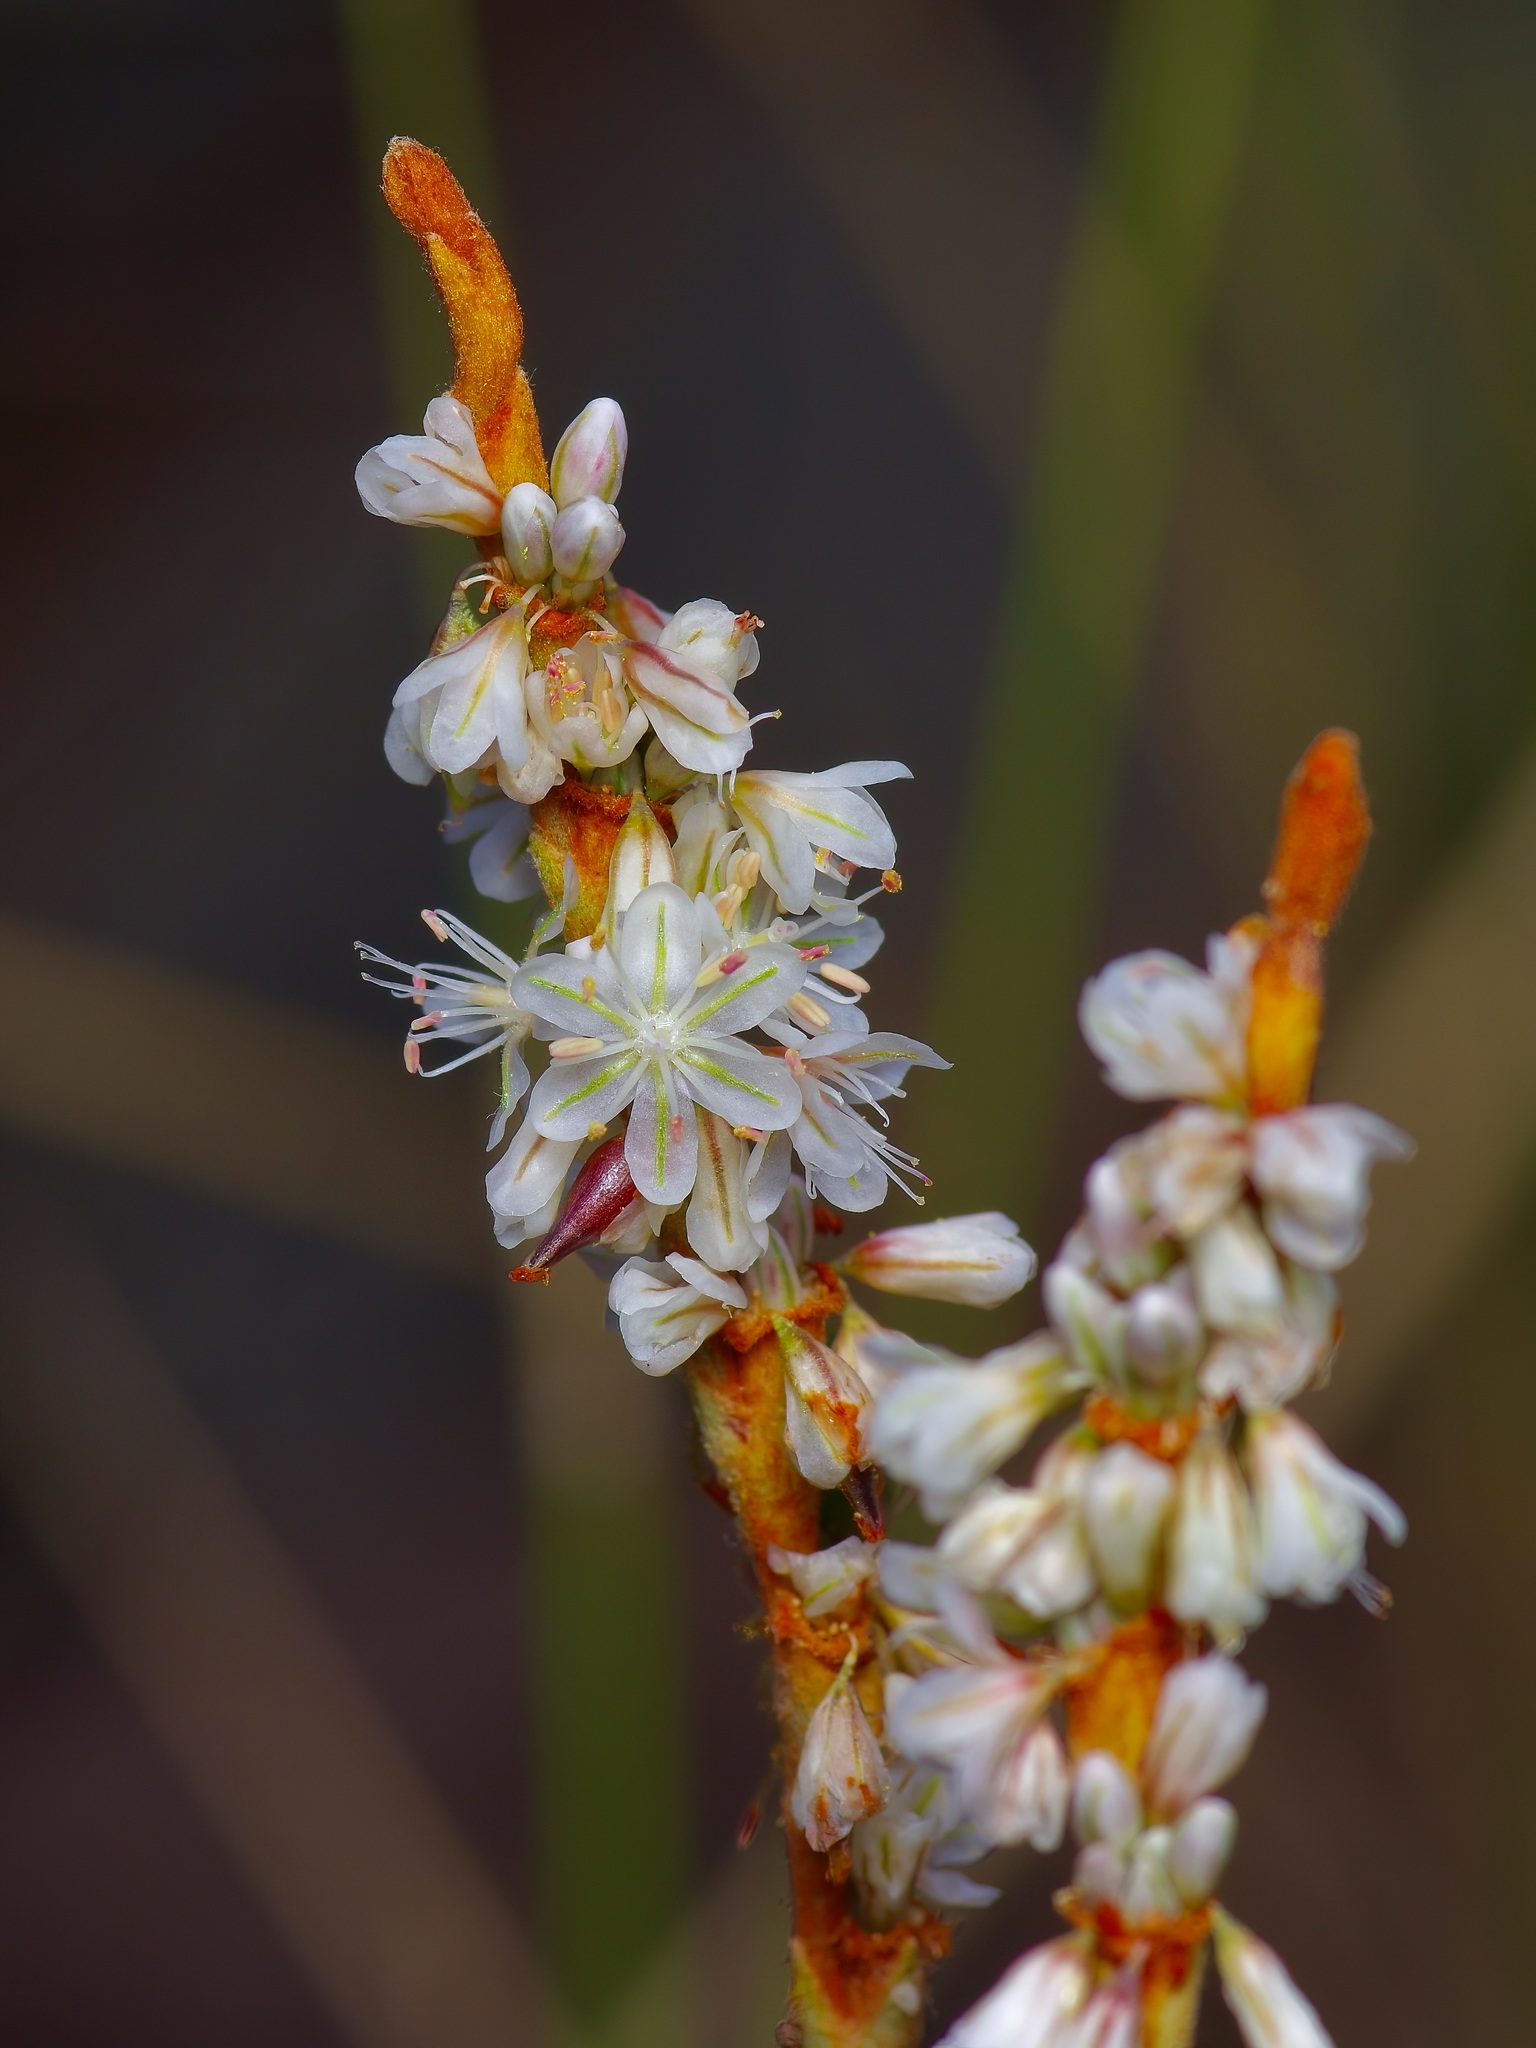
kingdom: Plantae
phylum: Tracheophyta
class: Magnoliopsida
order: Caryophyllales
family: Polygonaceae
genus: Eriogonum
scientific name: Eriogonum racemosum
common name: Redroot wild buckwheat
